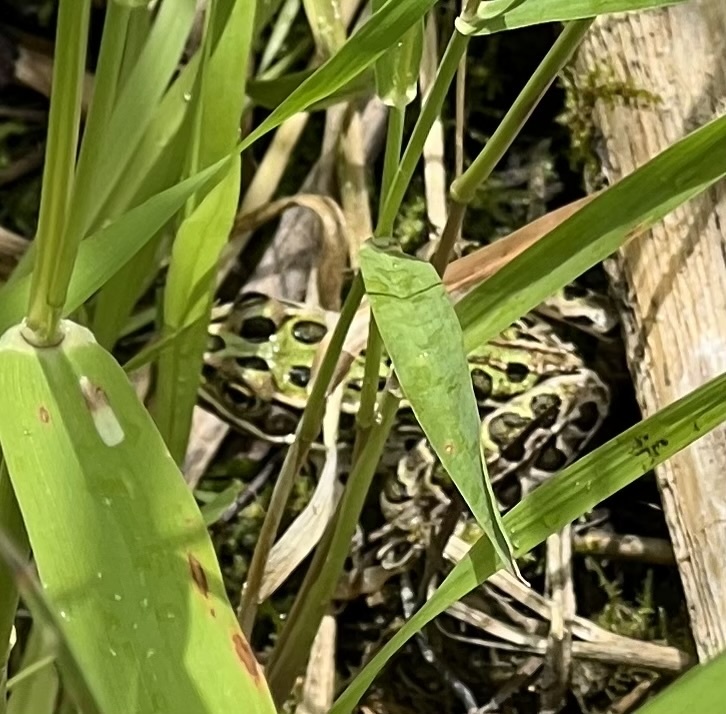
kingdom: Animalia
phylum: Chordata
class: Amphibia
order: Anura
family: Ranidae
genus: Lithobates
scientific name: Lithobates pipiens
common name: Northern leopard frog
